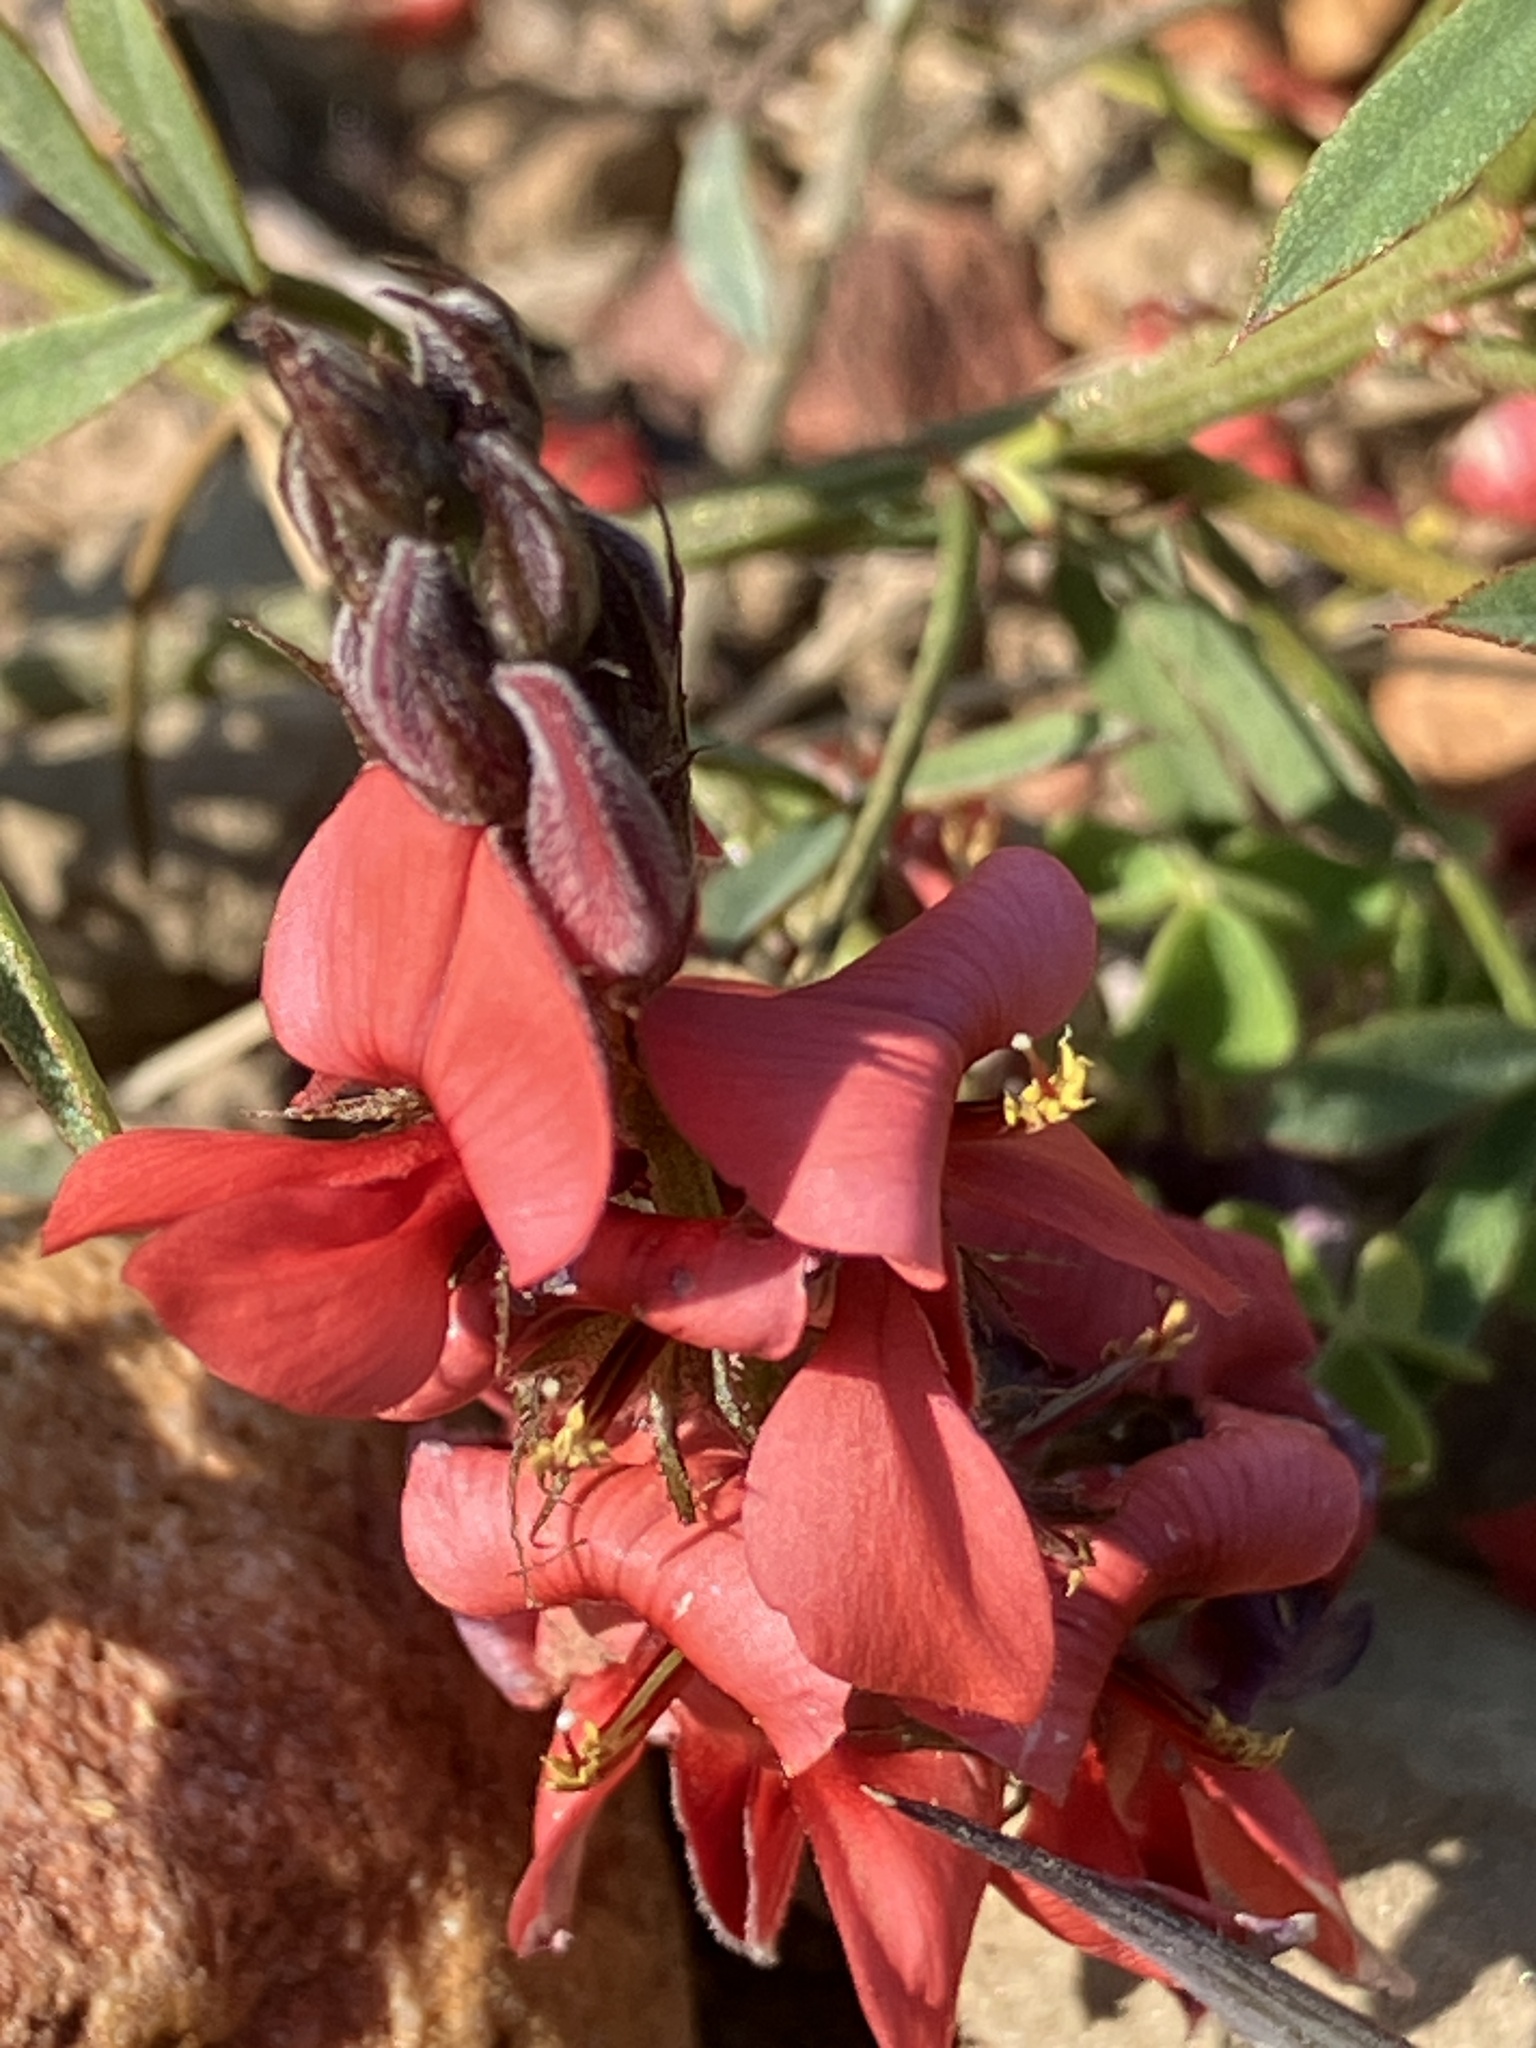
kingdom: Plantae
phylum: Tracheophyta
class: Magnoliopsida
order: Fabales
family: Fabaceae
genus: Indigofera
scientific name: Indigofera heterophylla
